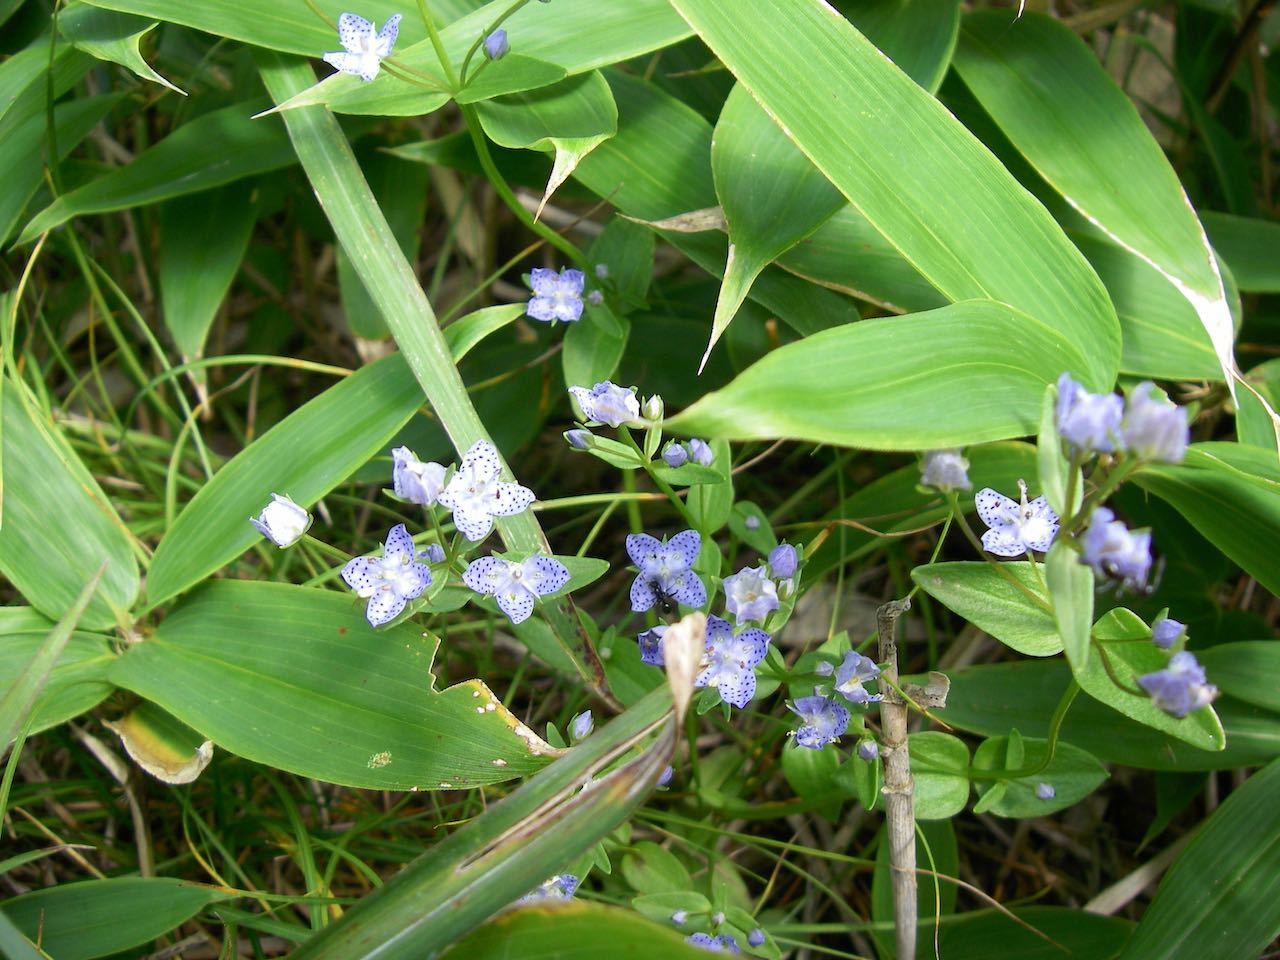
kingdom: Plantae
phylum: Tracheophyta
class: Magnoliopsida
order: Gentianales
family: Gentianaceae
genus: Swertia
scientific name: Swertia tetrapetala
